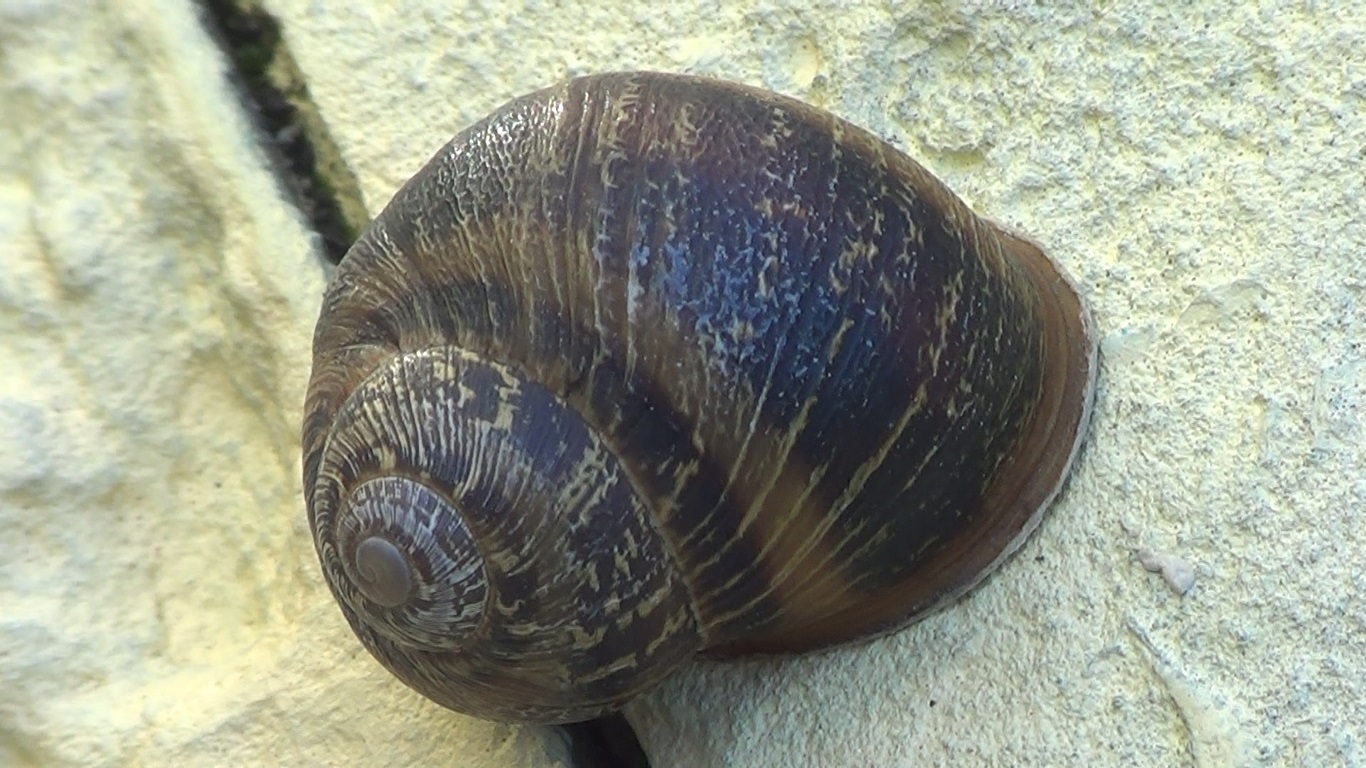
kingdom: Animalia
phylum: Mollusca
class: Gastropoda
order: Stylommatophora
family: Helicidae
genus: Cornu
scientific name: Cornu aspersum
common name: Brown garden snail
